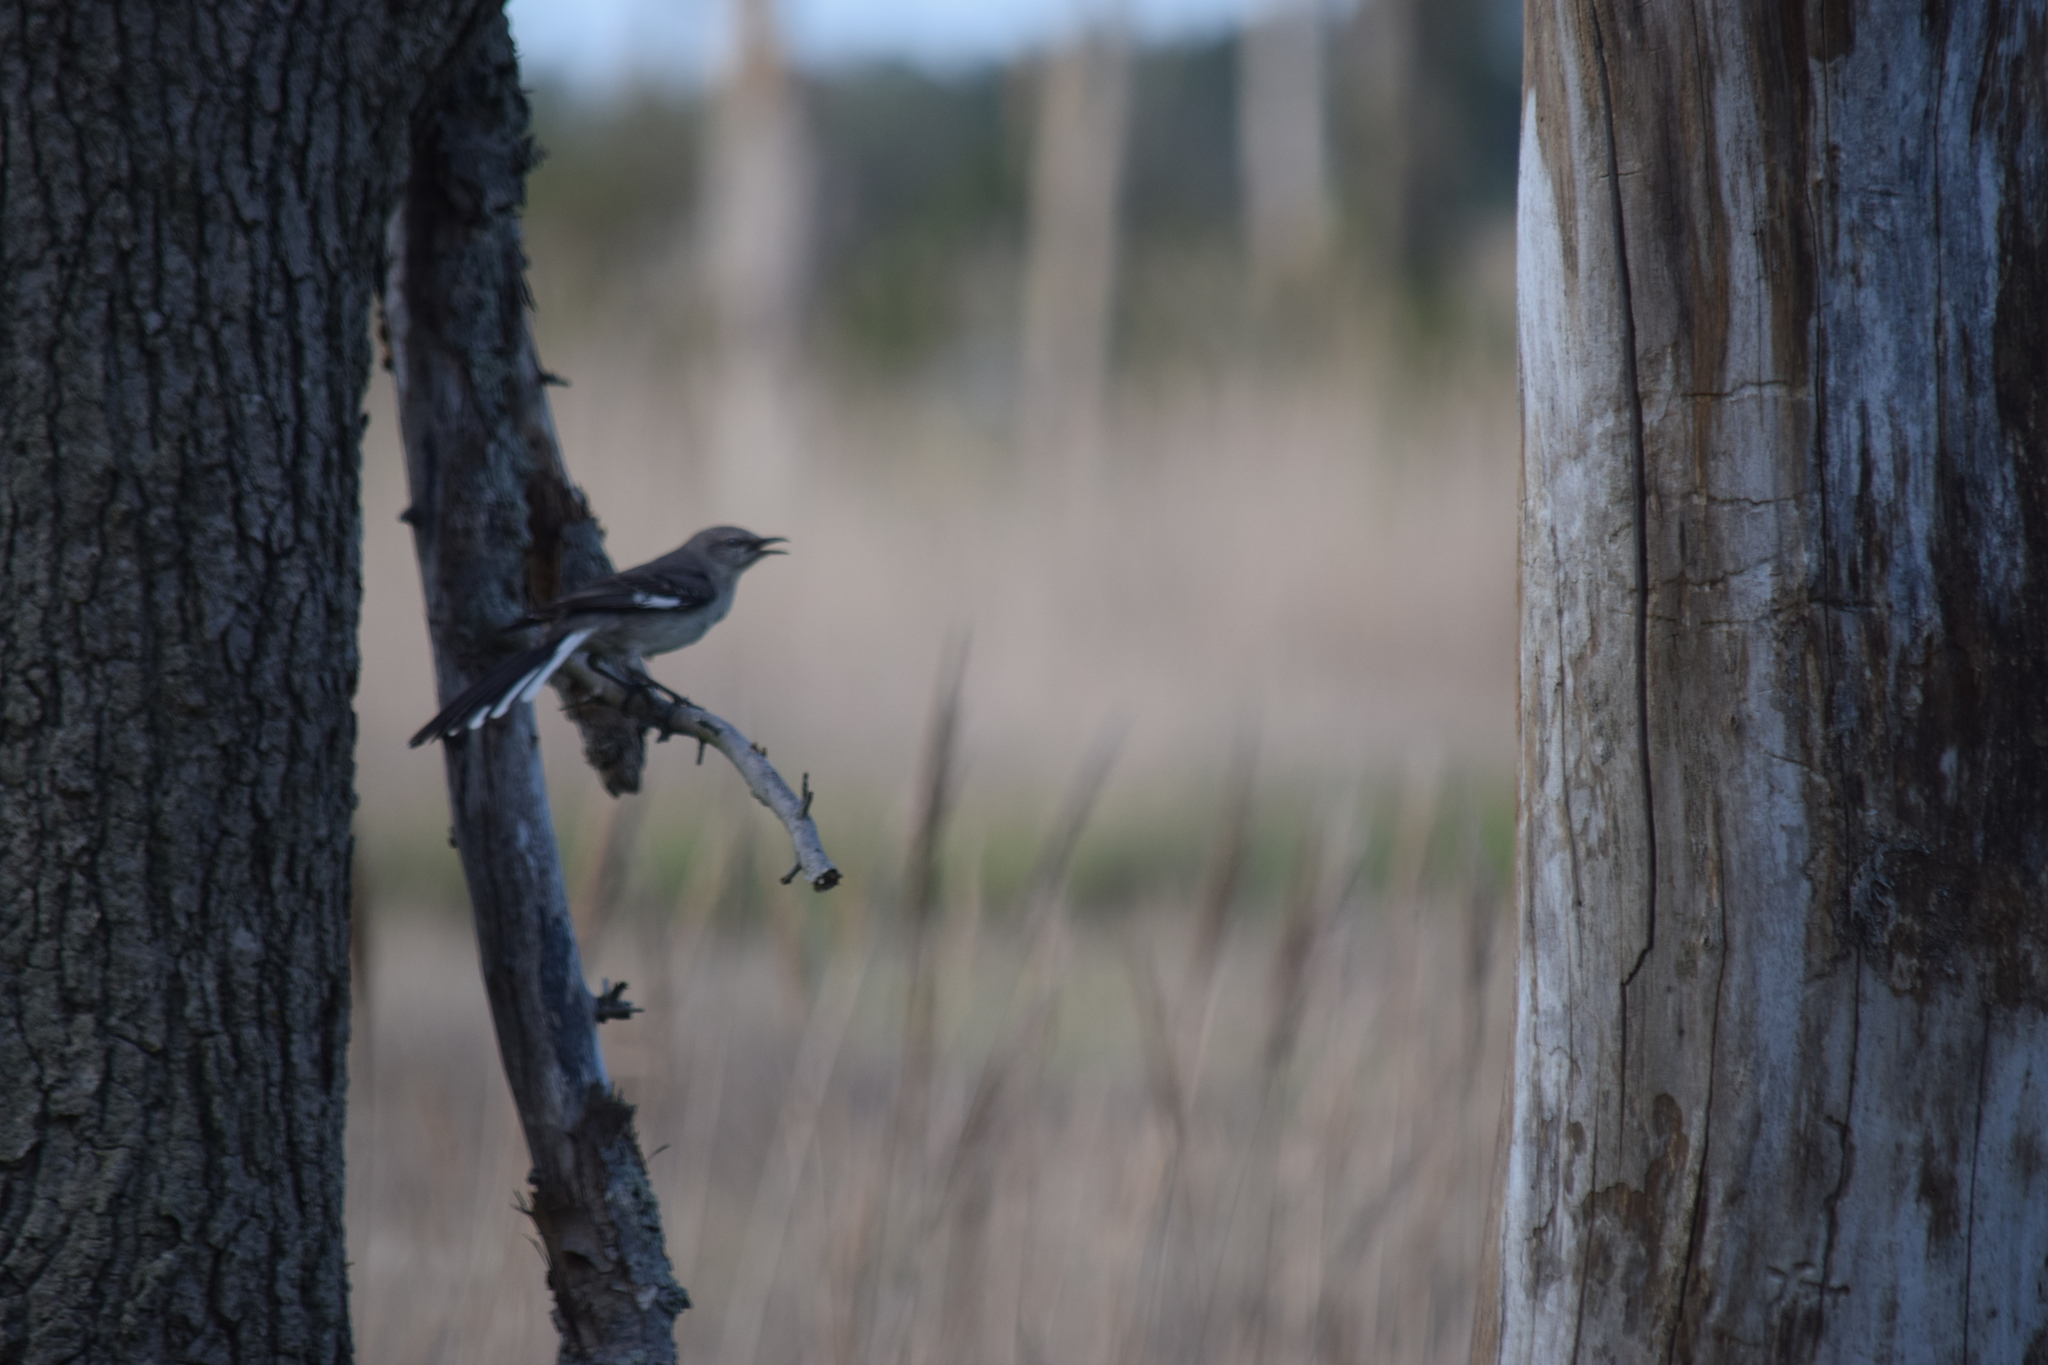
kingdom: Animalia
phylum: Chordata
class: Aves
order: Passeriformes
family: Mimidae
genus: Mimus
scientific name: Mimus polyglottos
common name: Northern mockingbird
